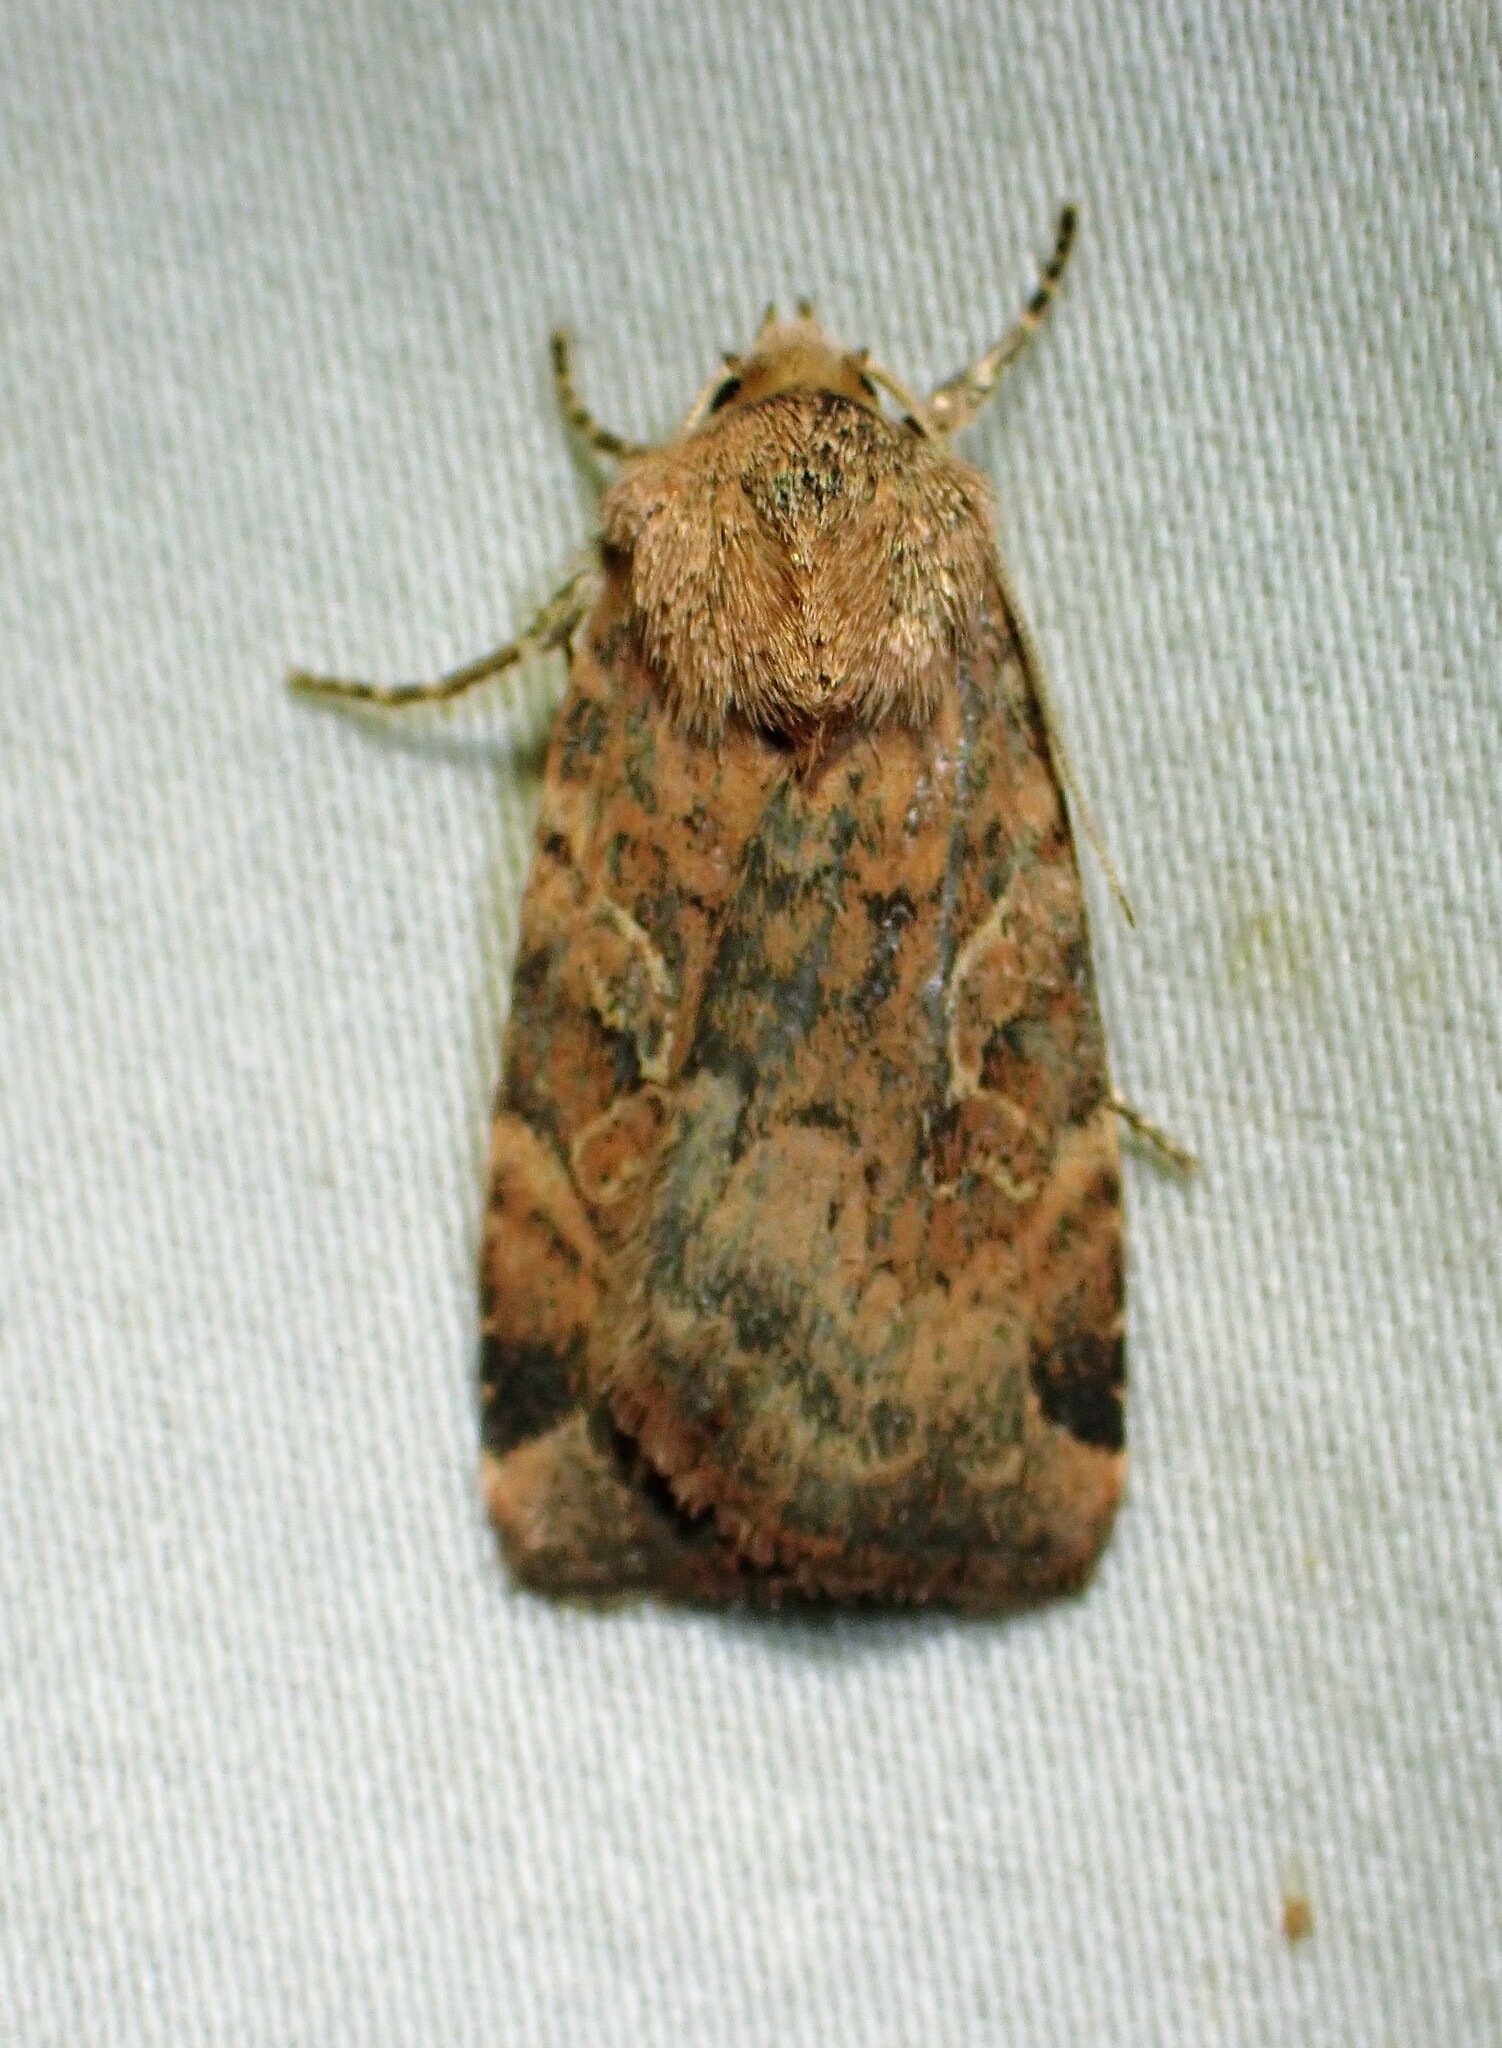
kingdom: Animalia
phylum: Arthropoda
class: Insecta
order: Lepidoptera
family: Noctuidae
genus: Cryptocala
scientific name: Cryptocala acadiensis
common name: Catocaline dart
